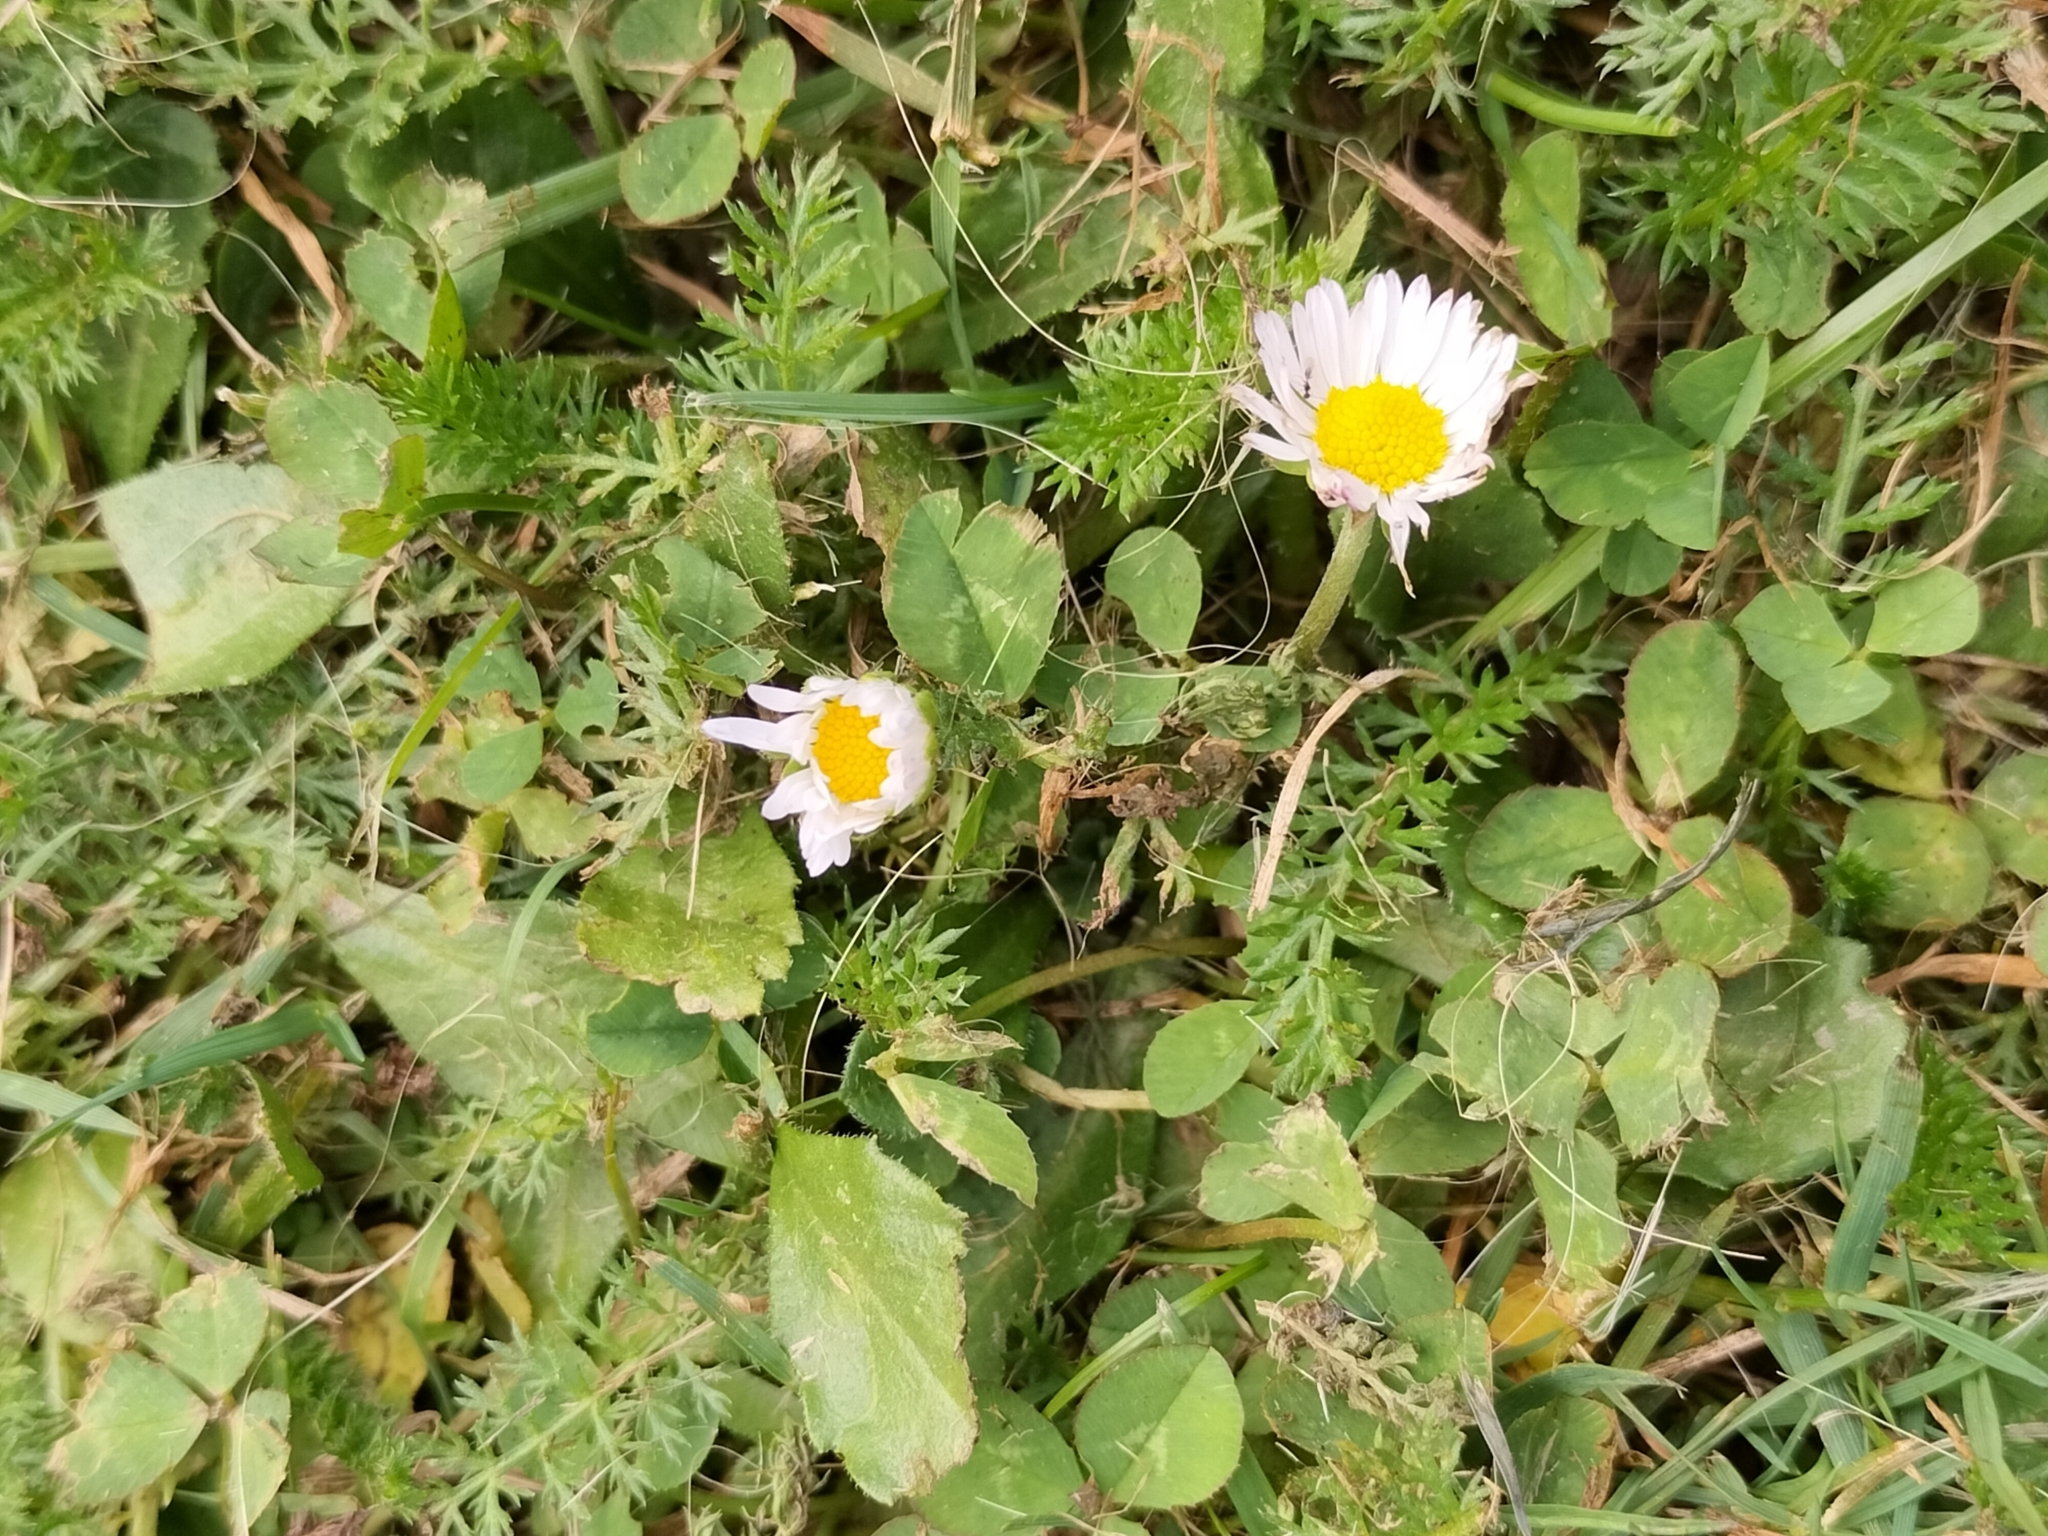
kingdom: Plantae
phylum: Tracheophyta
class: Magnoliopsida
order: Asterales
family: Asteraceae
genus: Bellis
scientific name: Bellis perennis
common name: Lawndaisy
